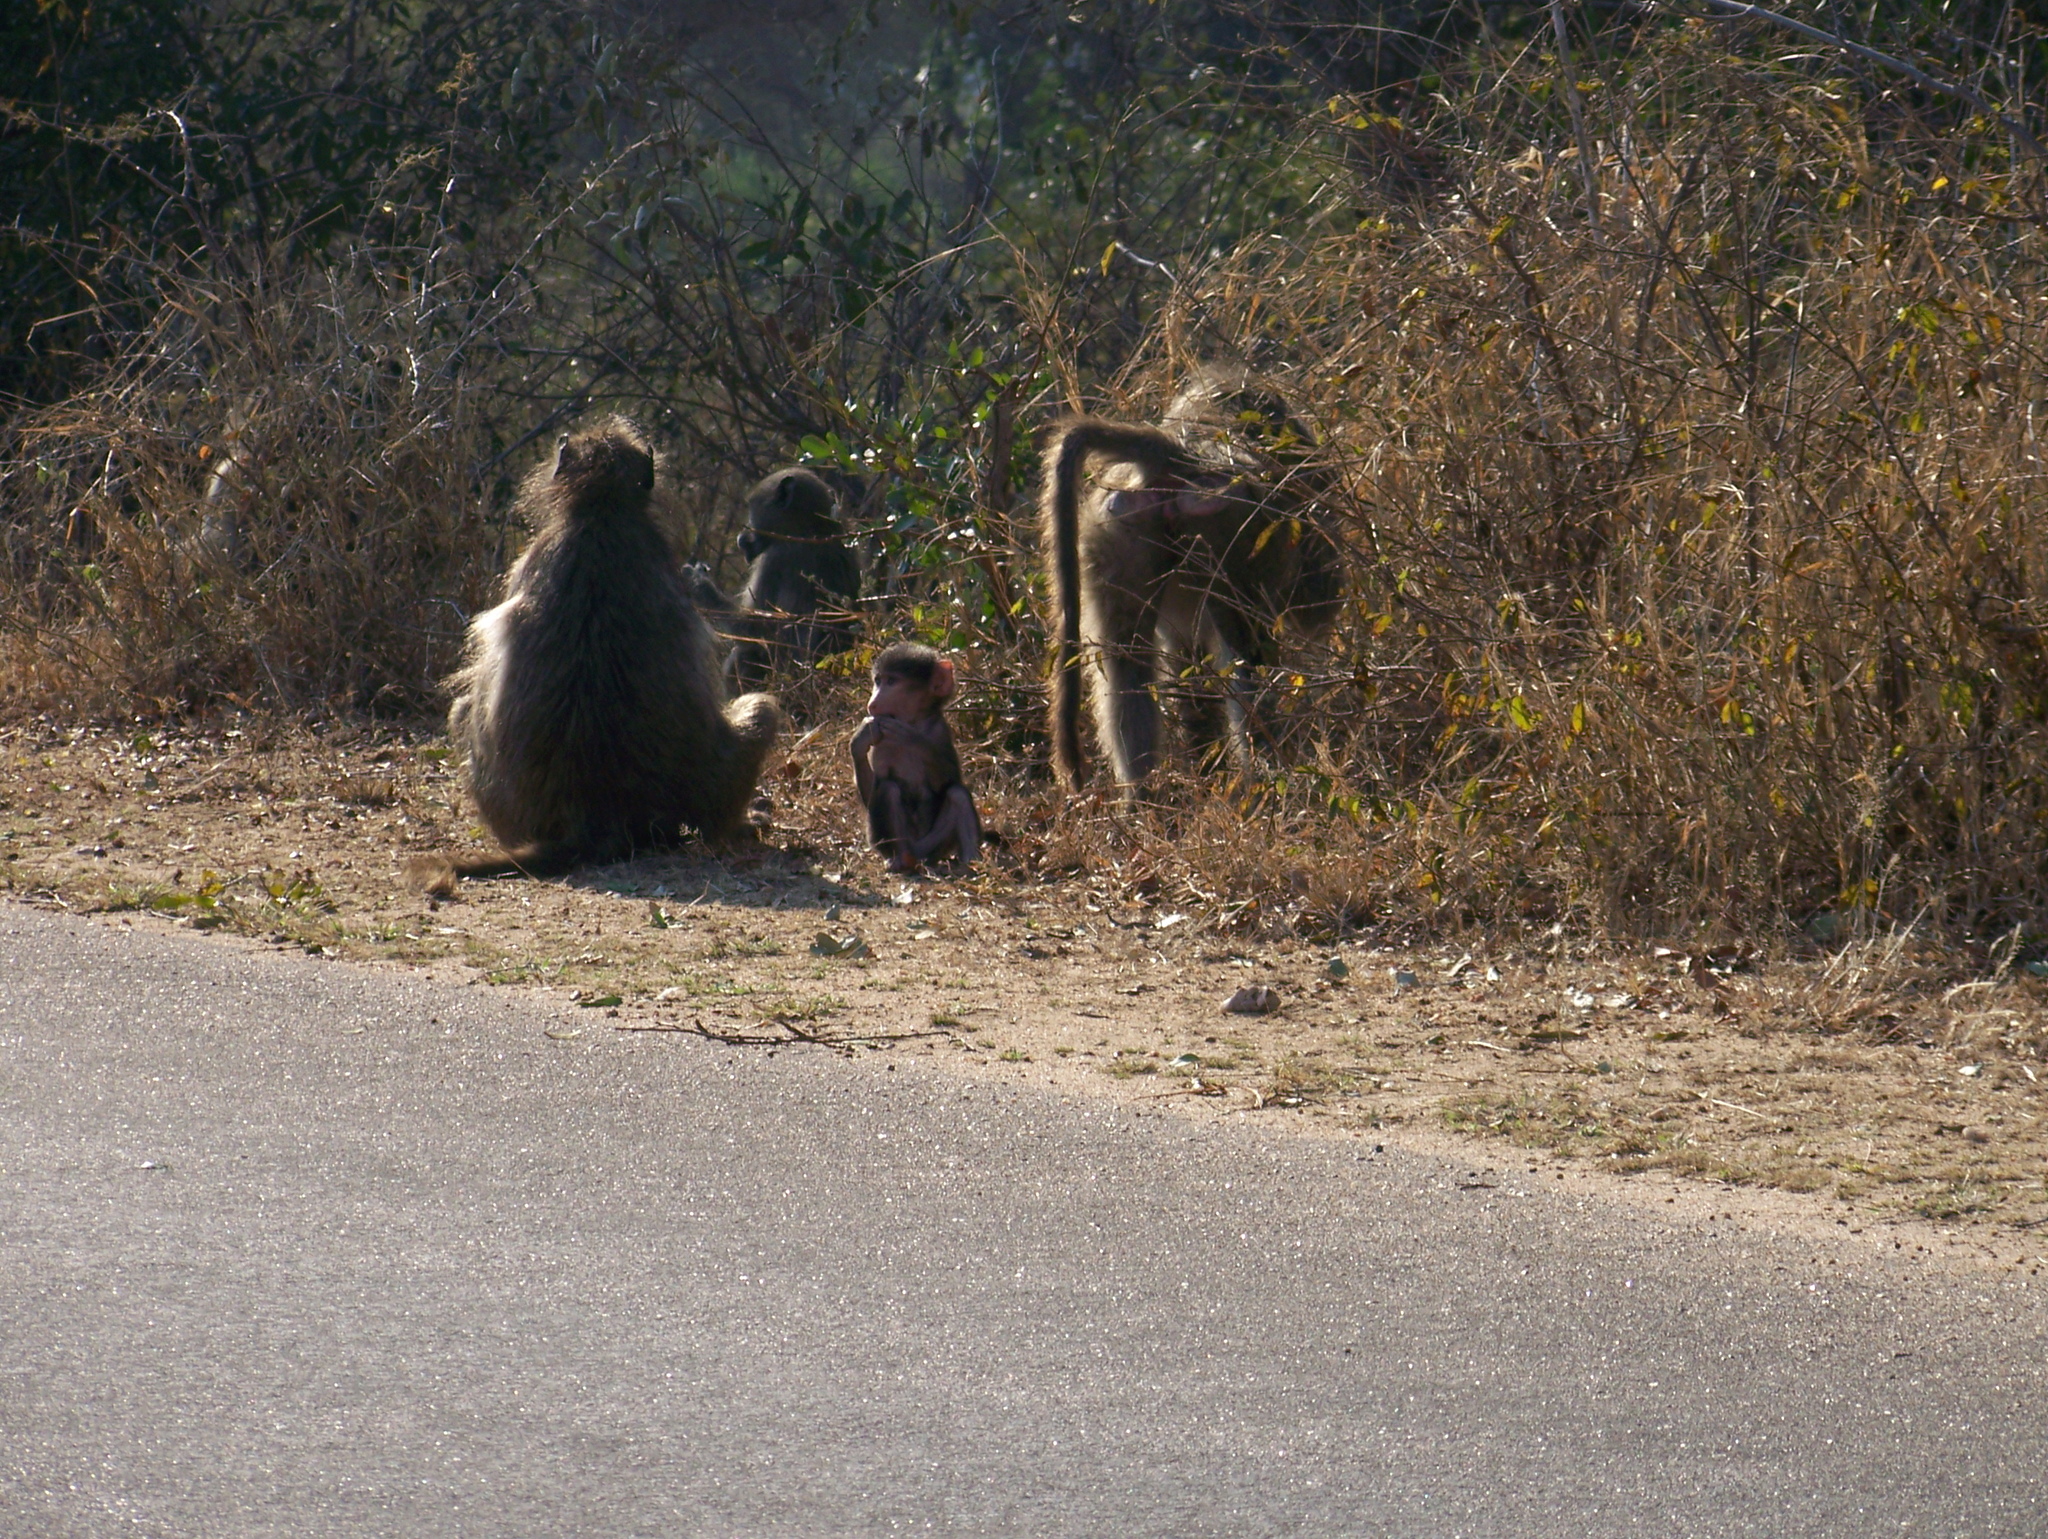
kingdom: Animalia
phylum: Chordata
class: Mammalia
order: Primates
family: Cercopithecidae
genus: Papio
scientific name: Papio ursinus
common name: Chacma baboon
